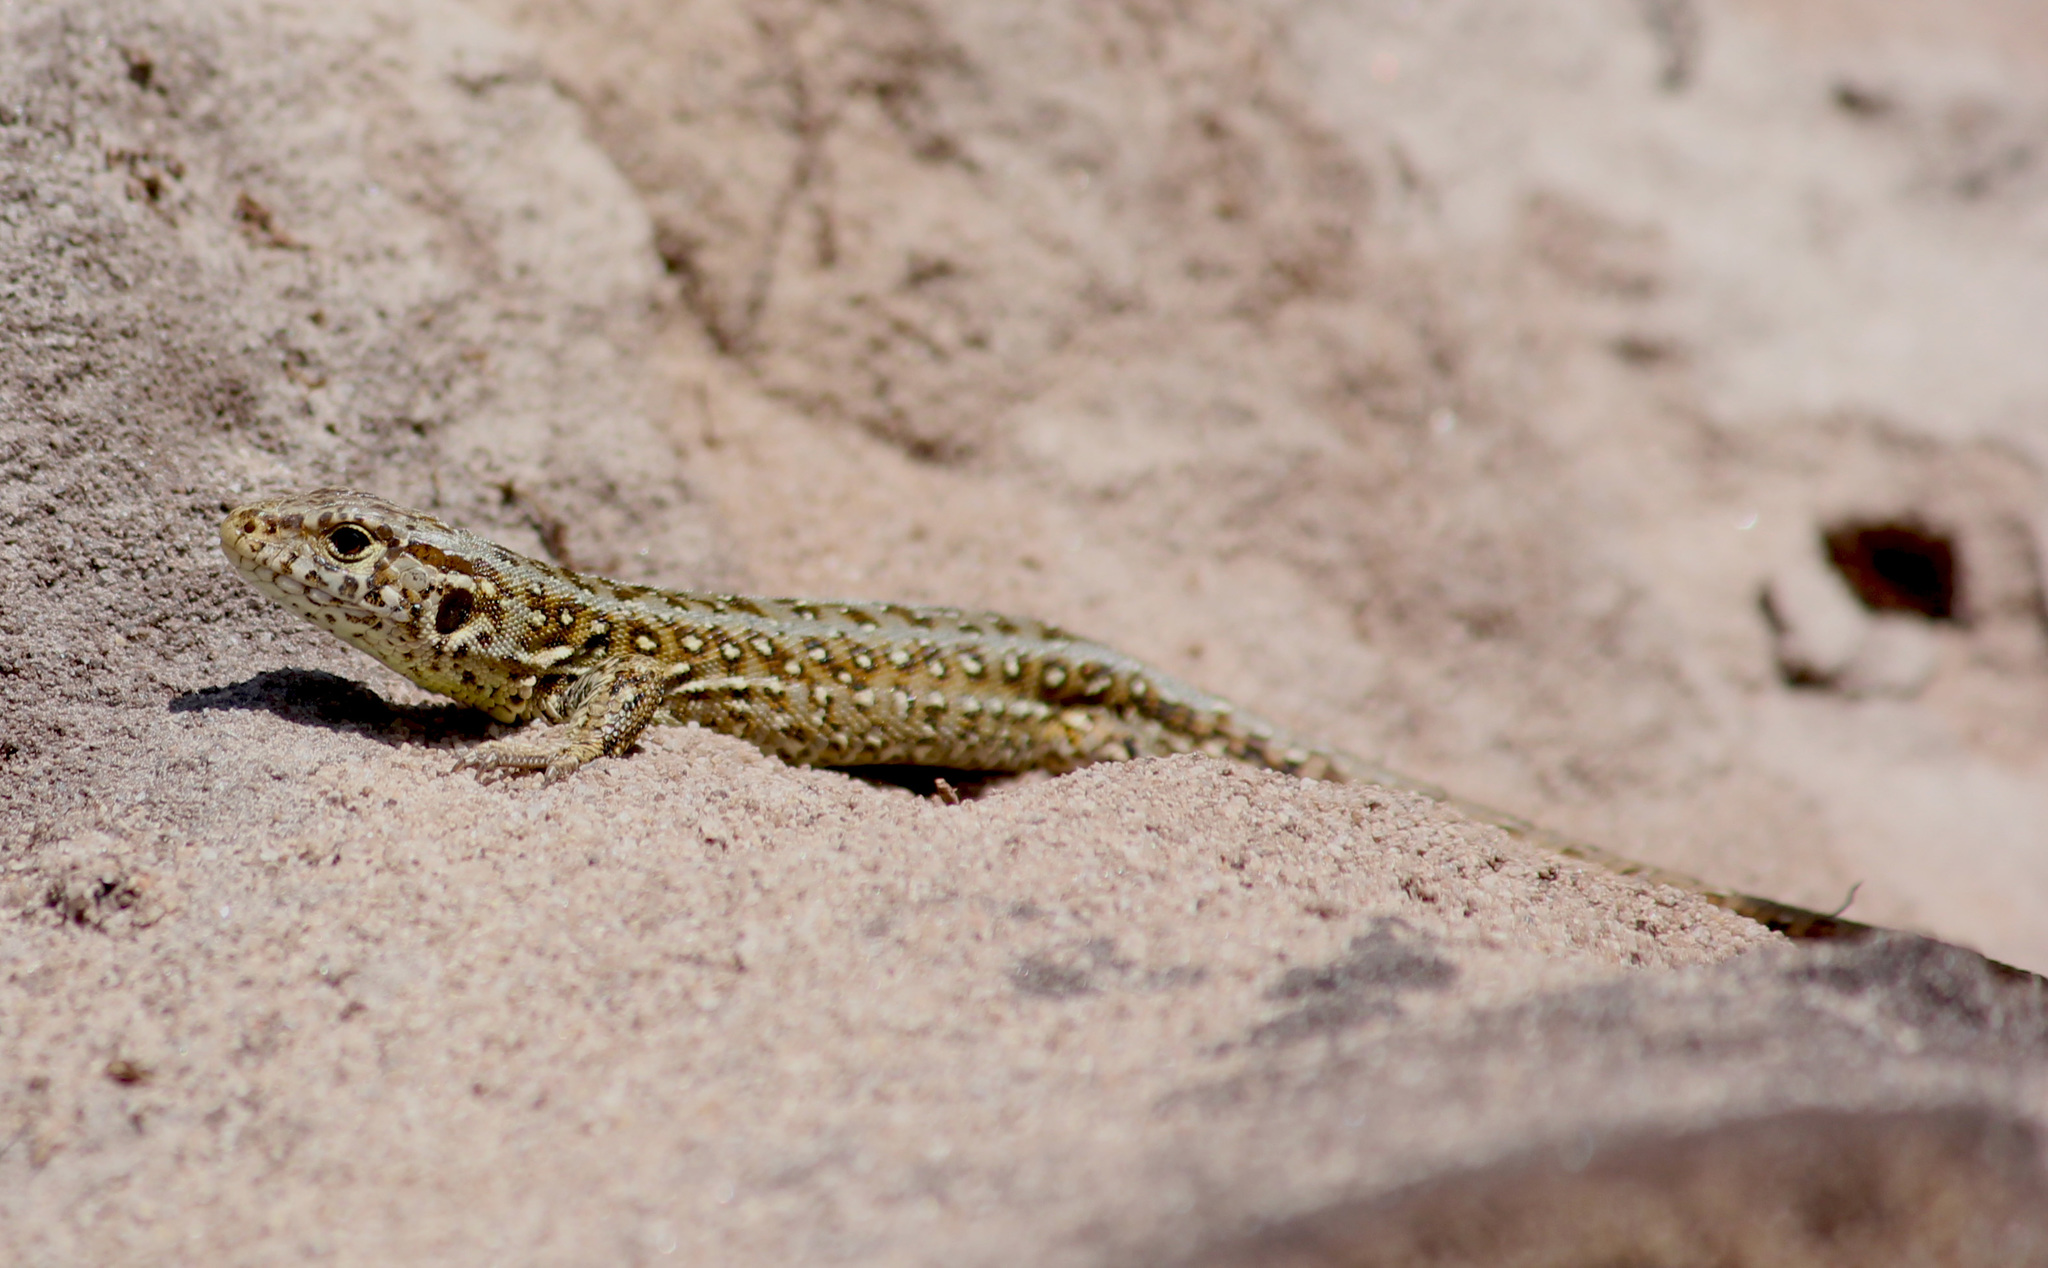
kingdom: Animalia
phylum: Chordata
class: Squamata
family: Lacertidae
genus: Lacerta
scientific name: Lacerta agilis
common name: Sand lizard
